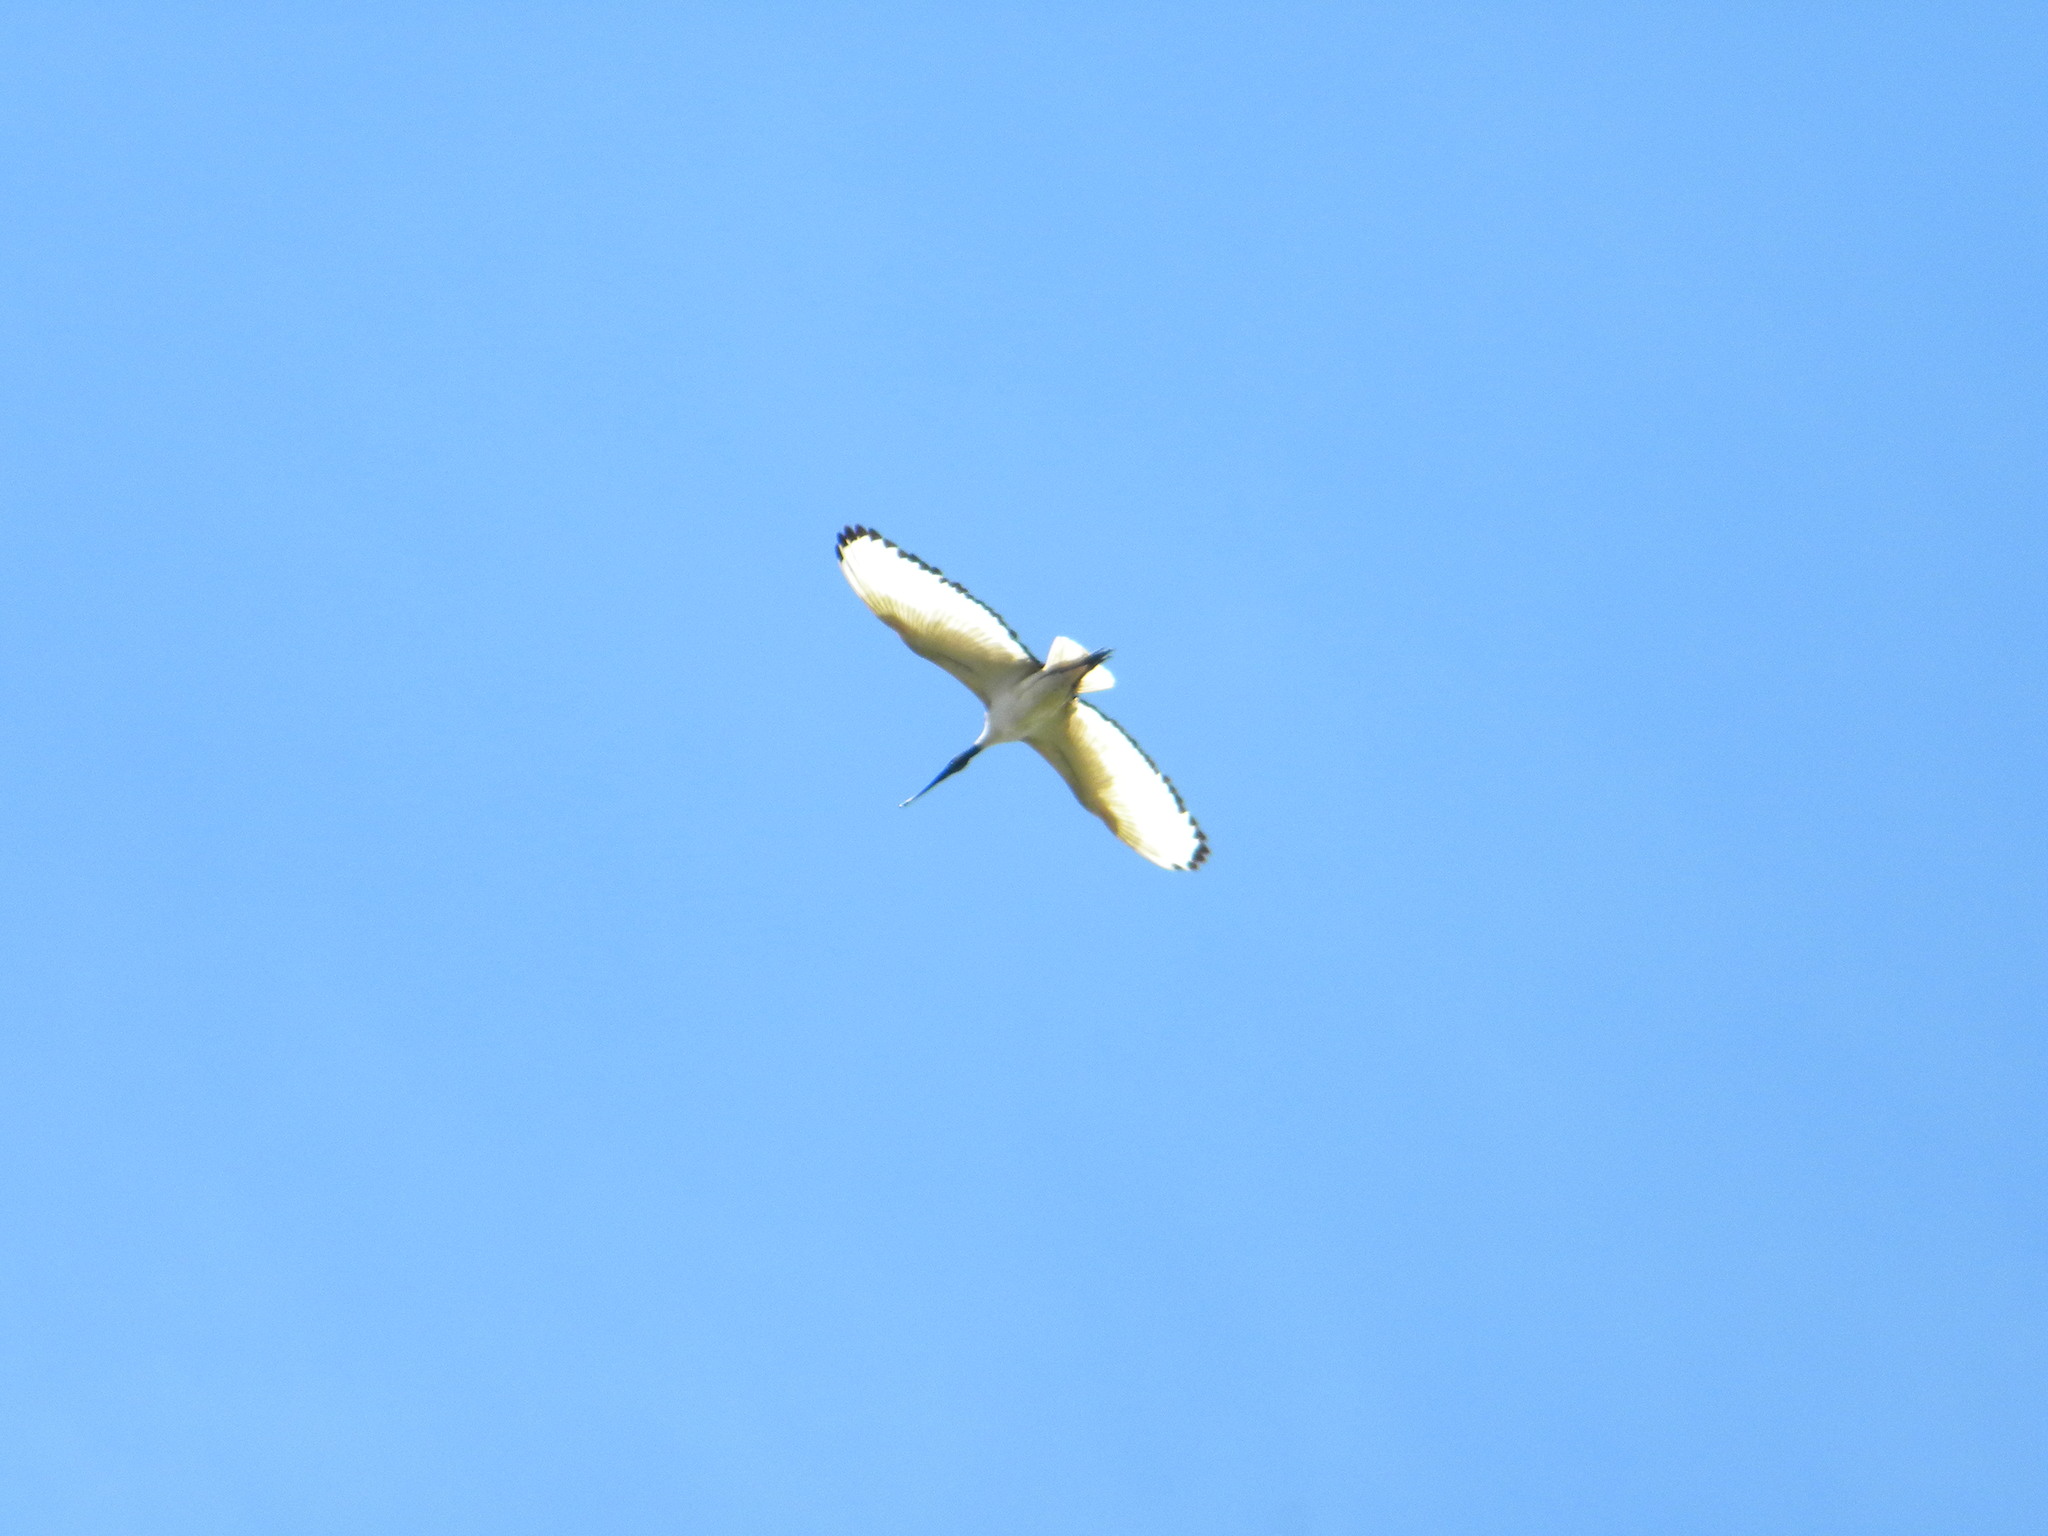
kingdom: Animalia
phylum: Chordata
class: Aves
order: Pelecaniformes
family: Threskiornithidae
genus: Threskiornis
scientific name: Threskiornis aethiopicus
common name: Sacred ibis
